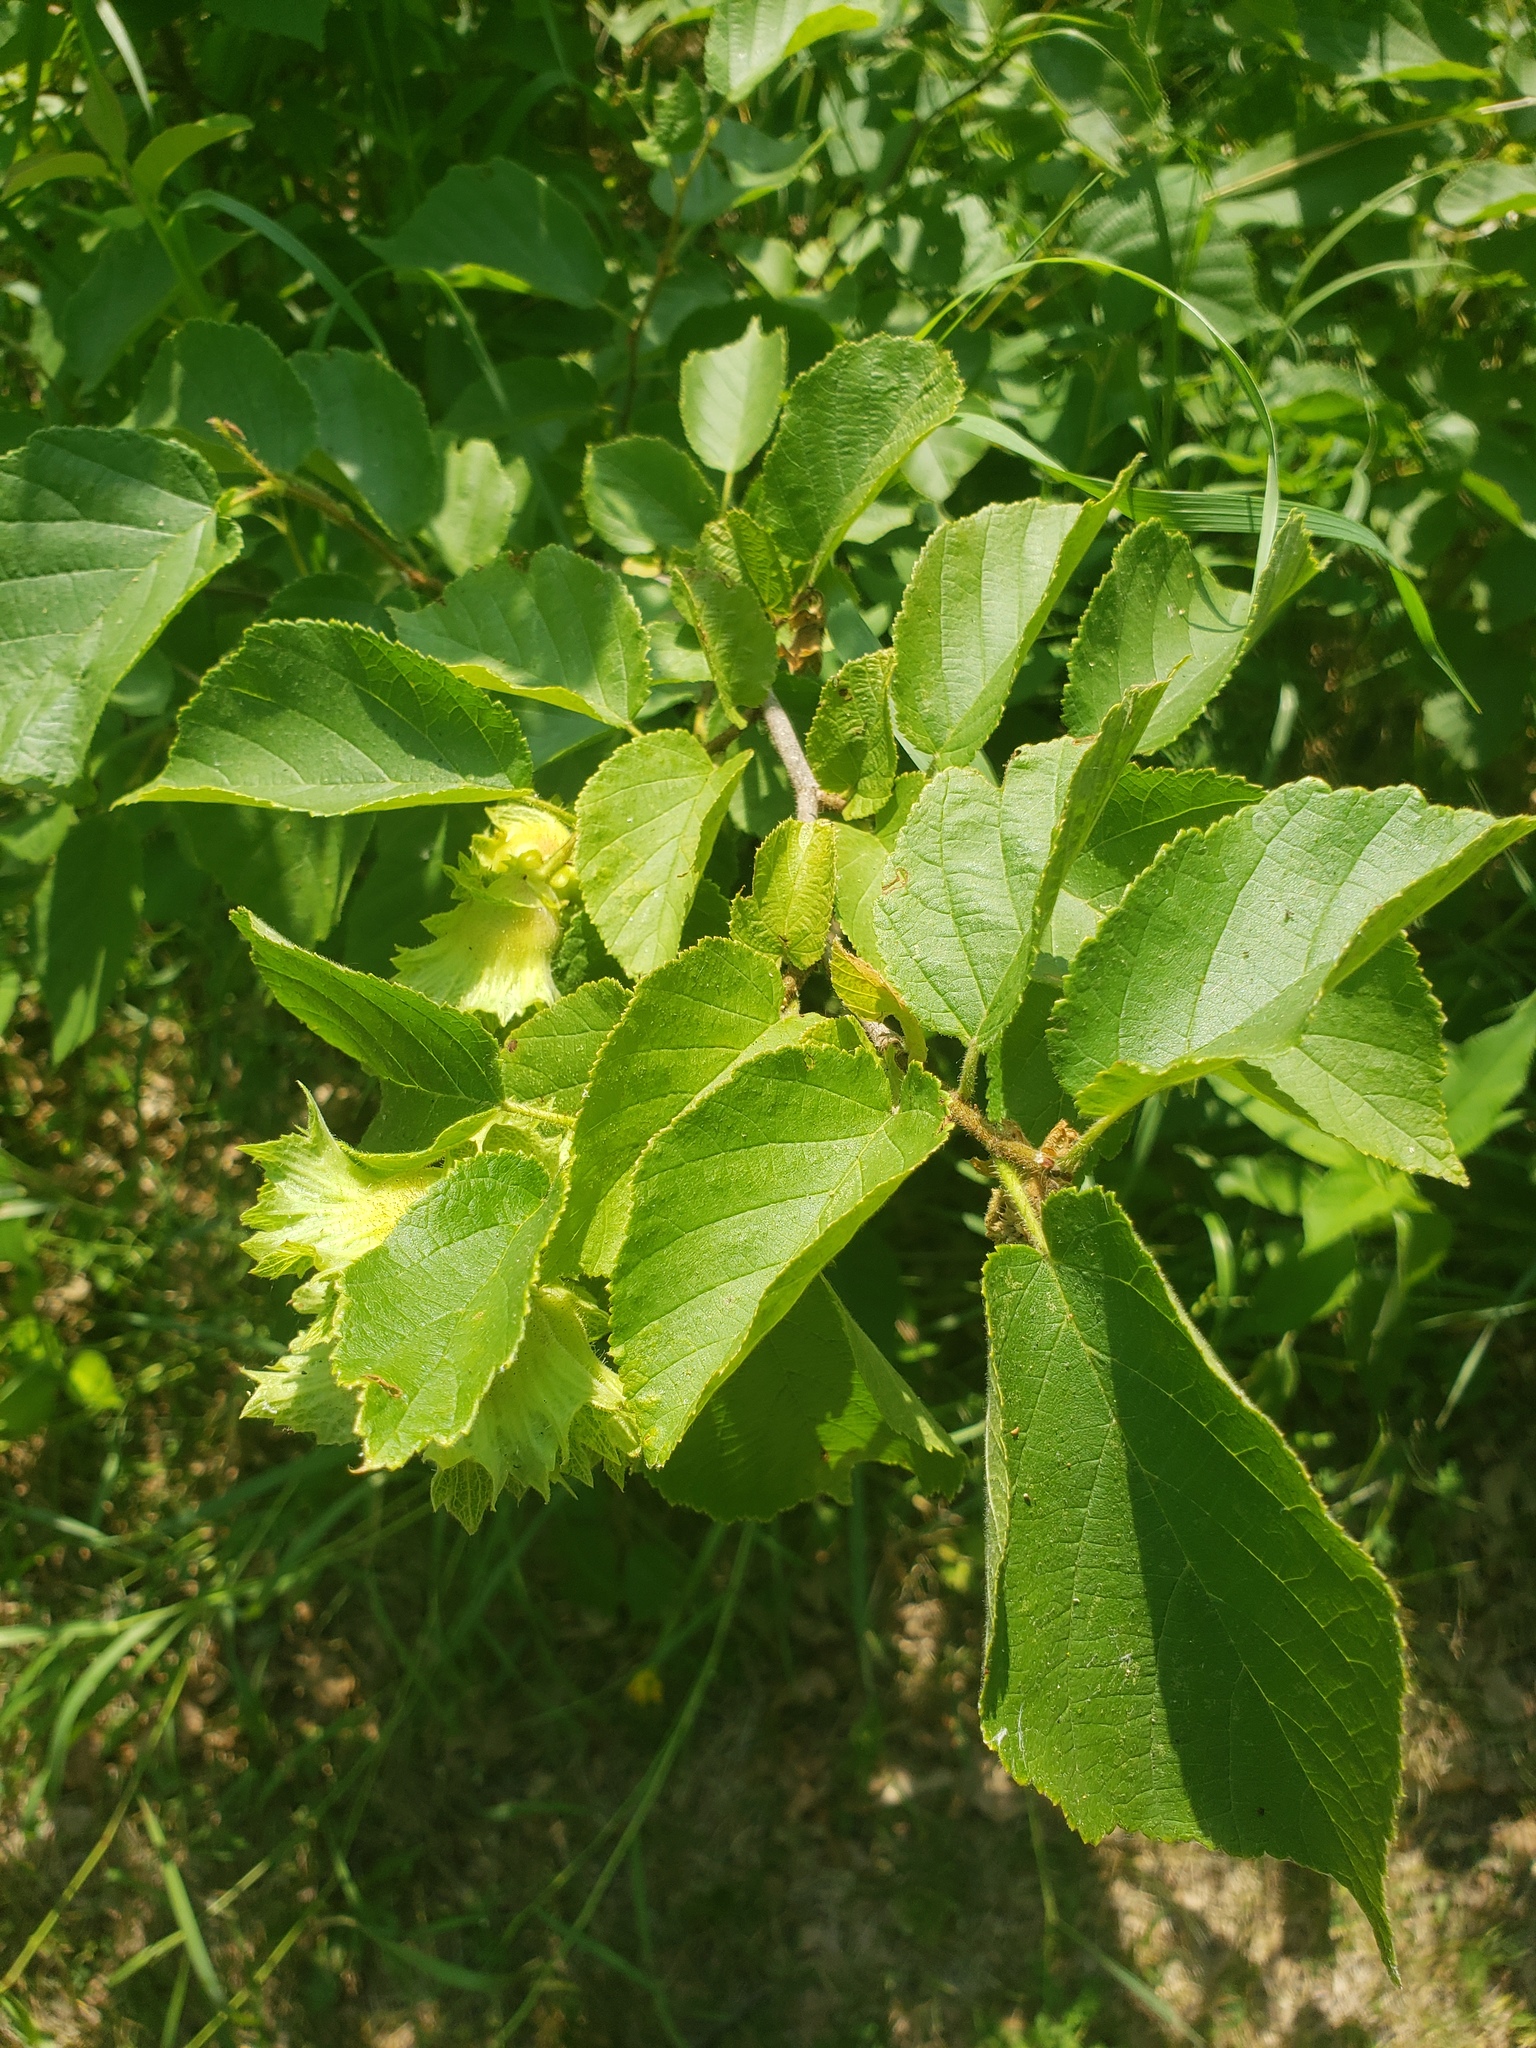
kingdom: Plantae
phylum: Tracheophyta
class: Magnoliopsida
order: Fagales
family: Betulaceae
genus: Corylus
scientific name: Corylus americana
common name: American hazel
